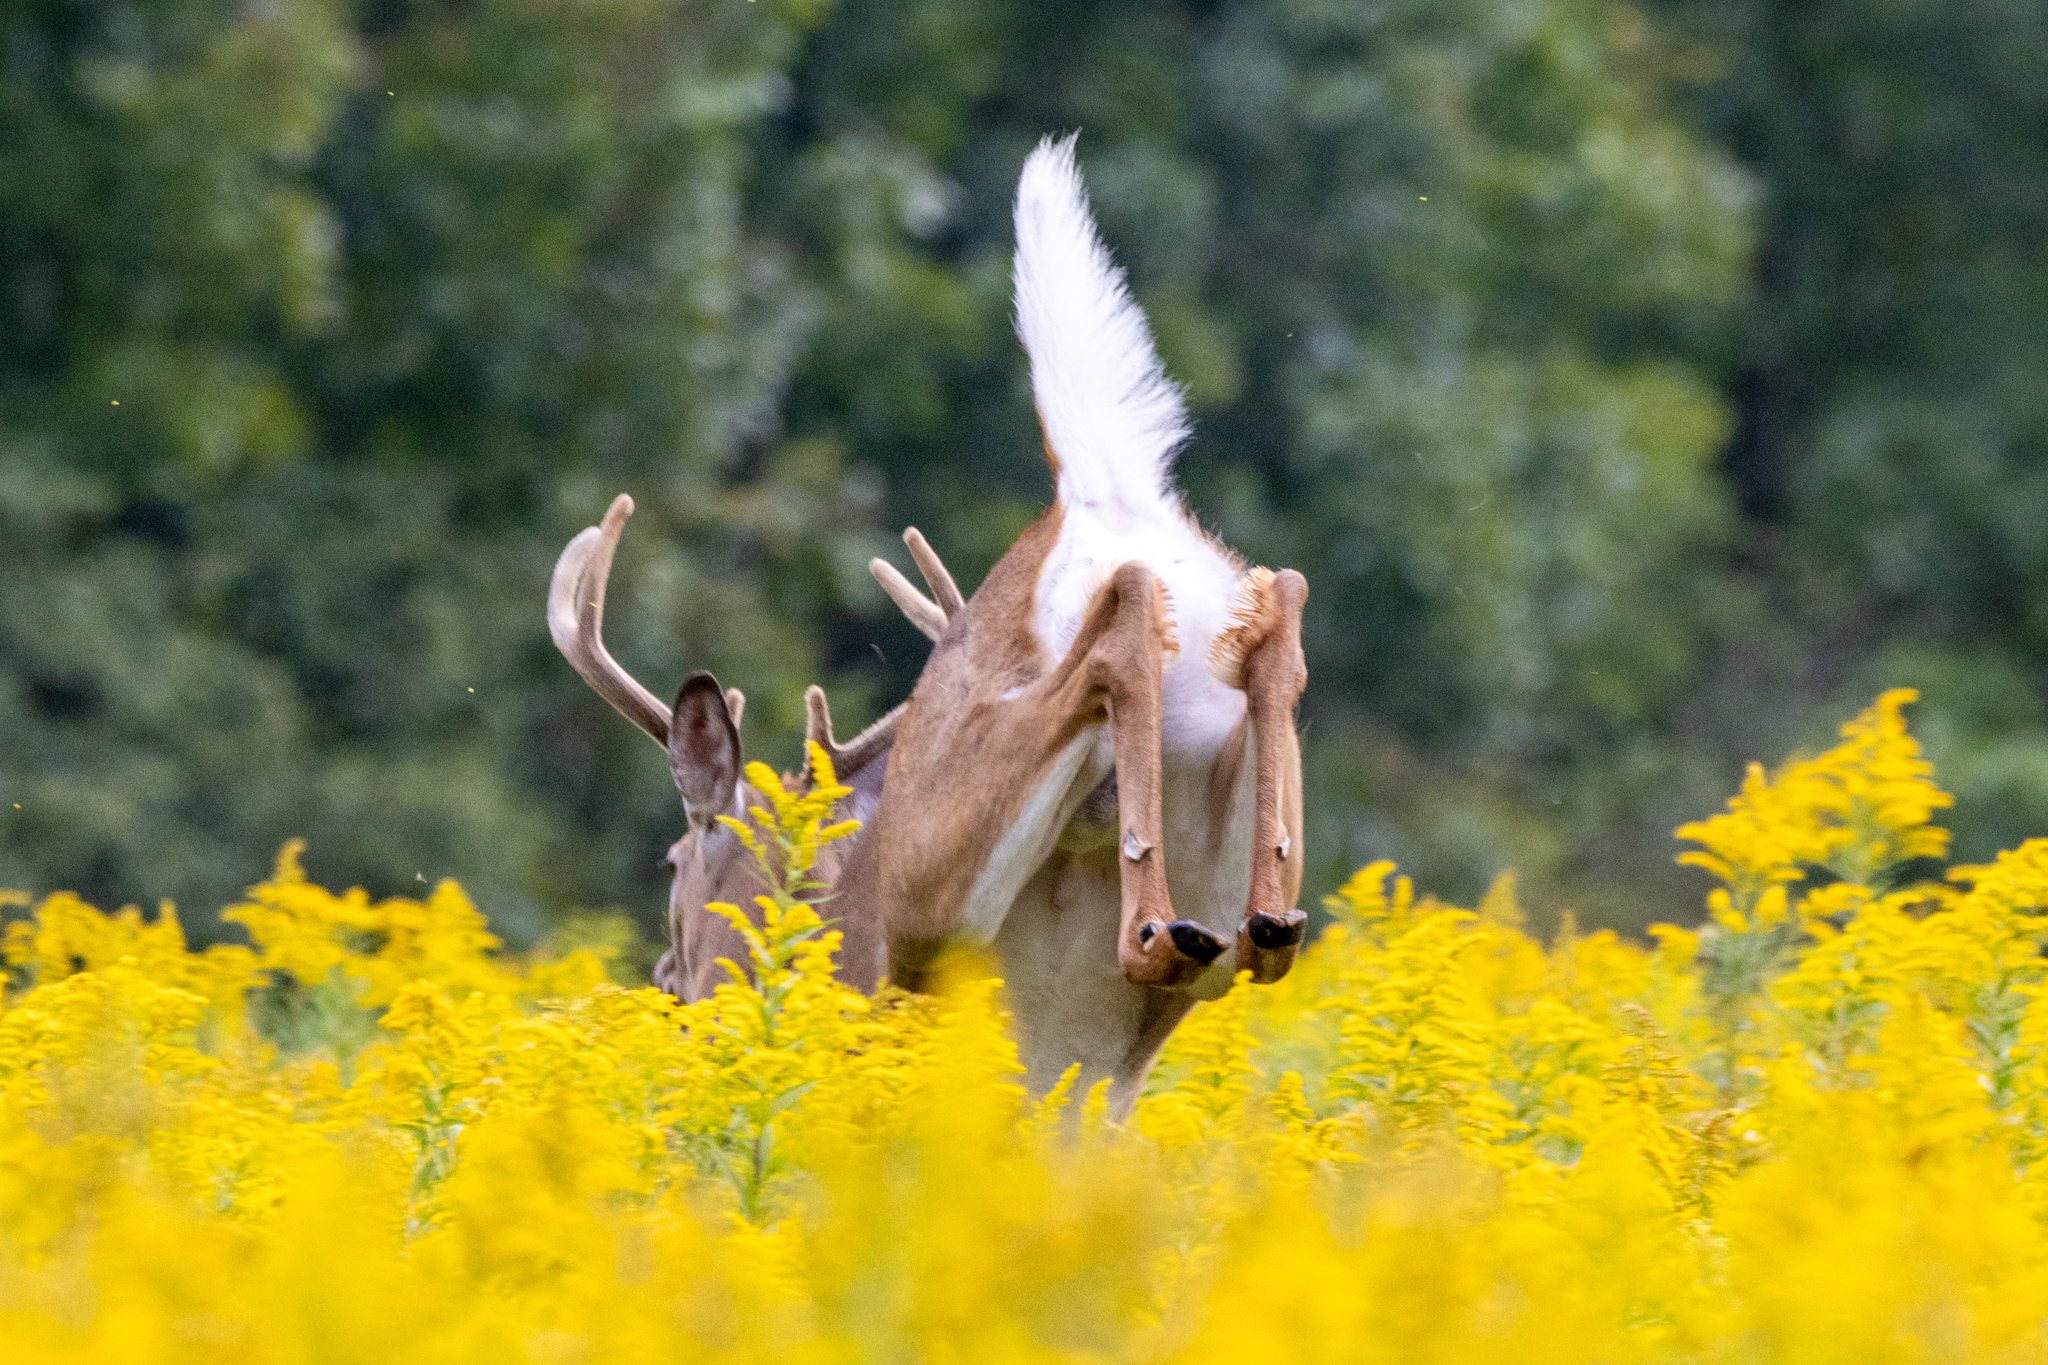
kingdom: Animalia
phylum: Chordata
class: Mammalia
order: Artiodactyla
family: Cervidae
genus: Odocoileus
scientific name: Odocoileus virginianus
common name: White-tailed deer
